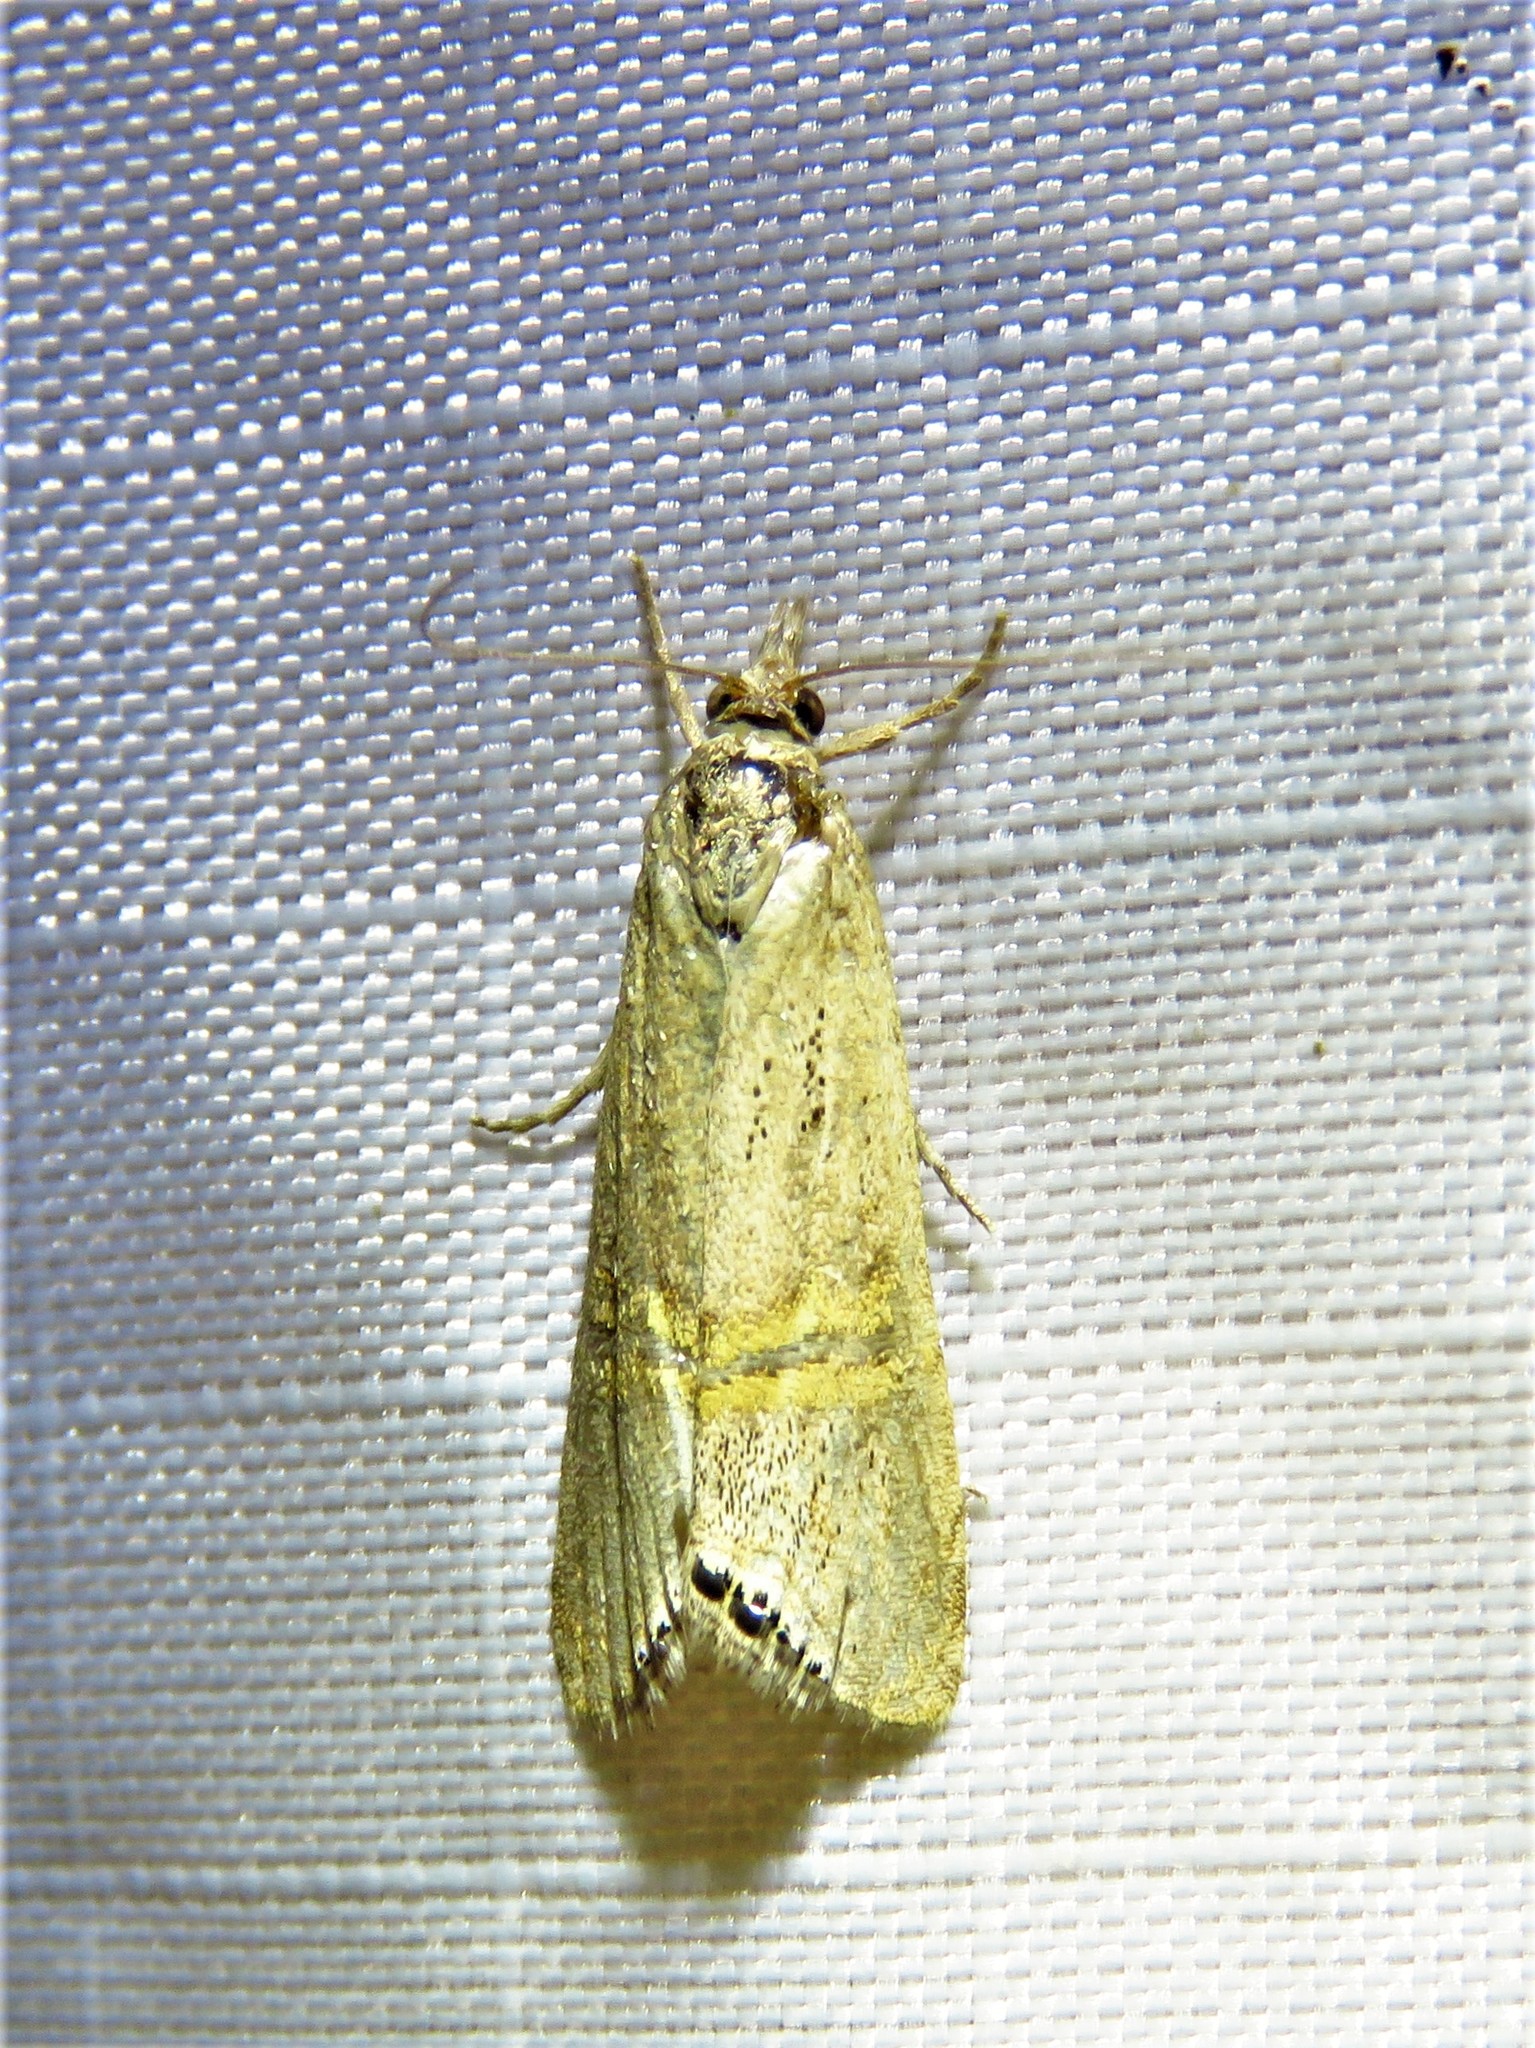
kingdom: Animalia
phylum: Arthropoda
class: Insecta
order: Lepidoptera
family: Crambidae
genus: Euchromius
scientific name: Euchromius ocellea
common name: Necklace veneer moth
